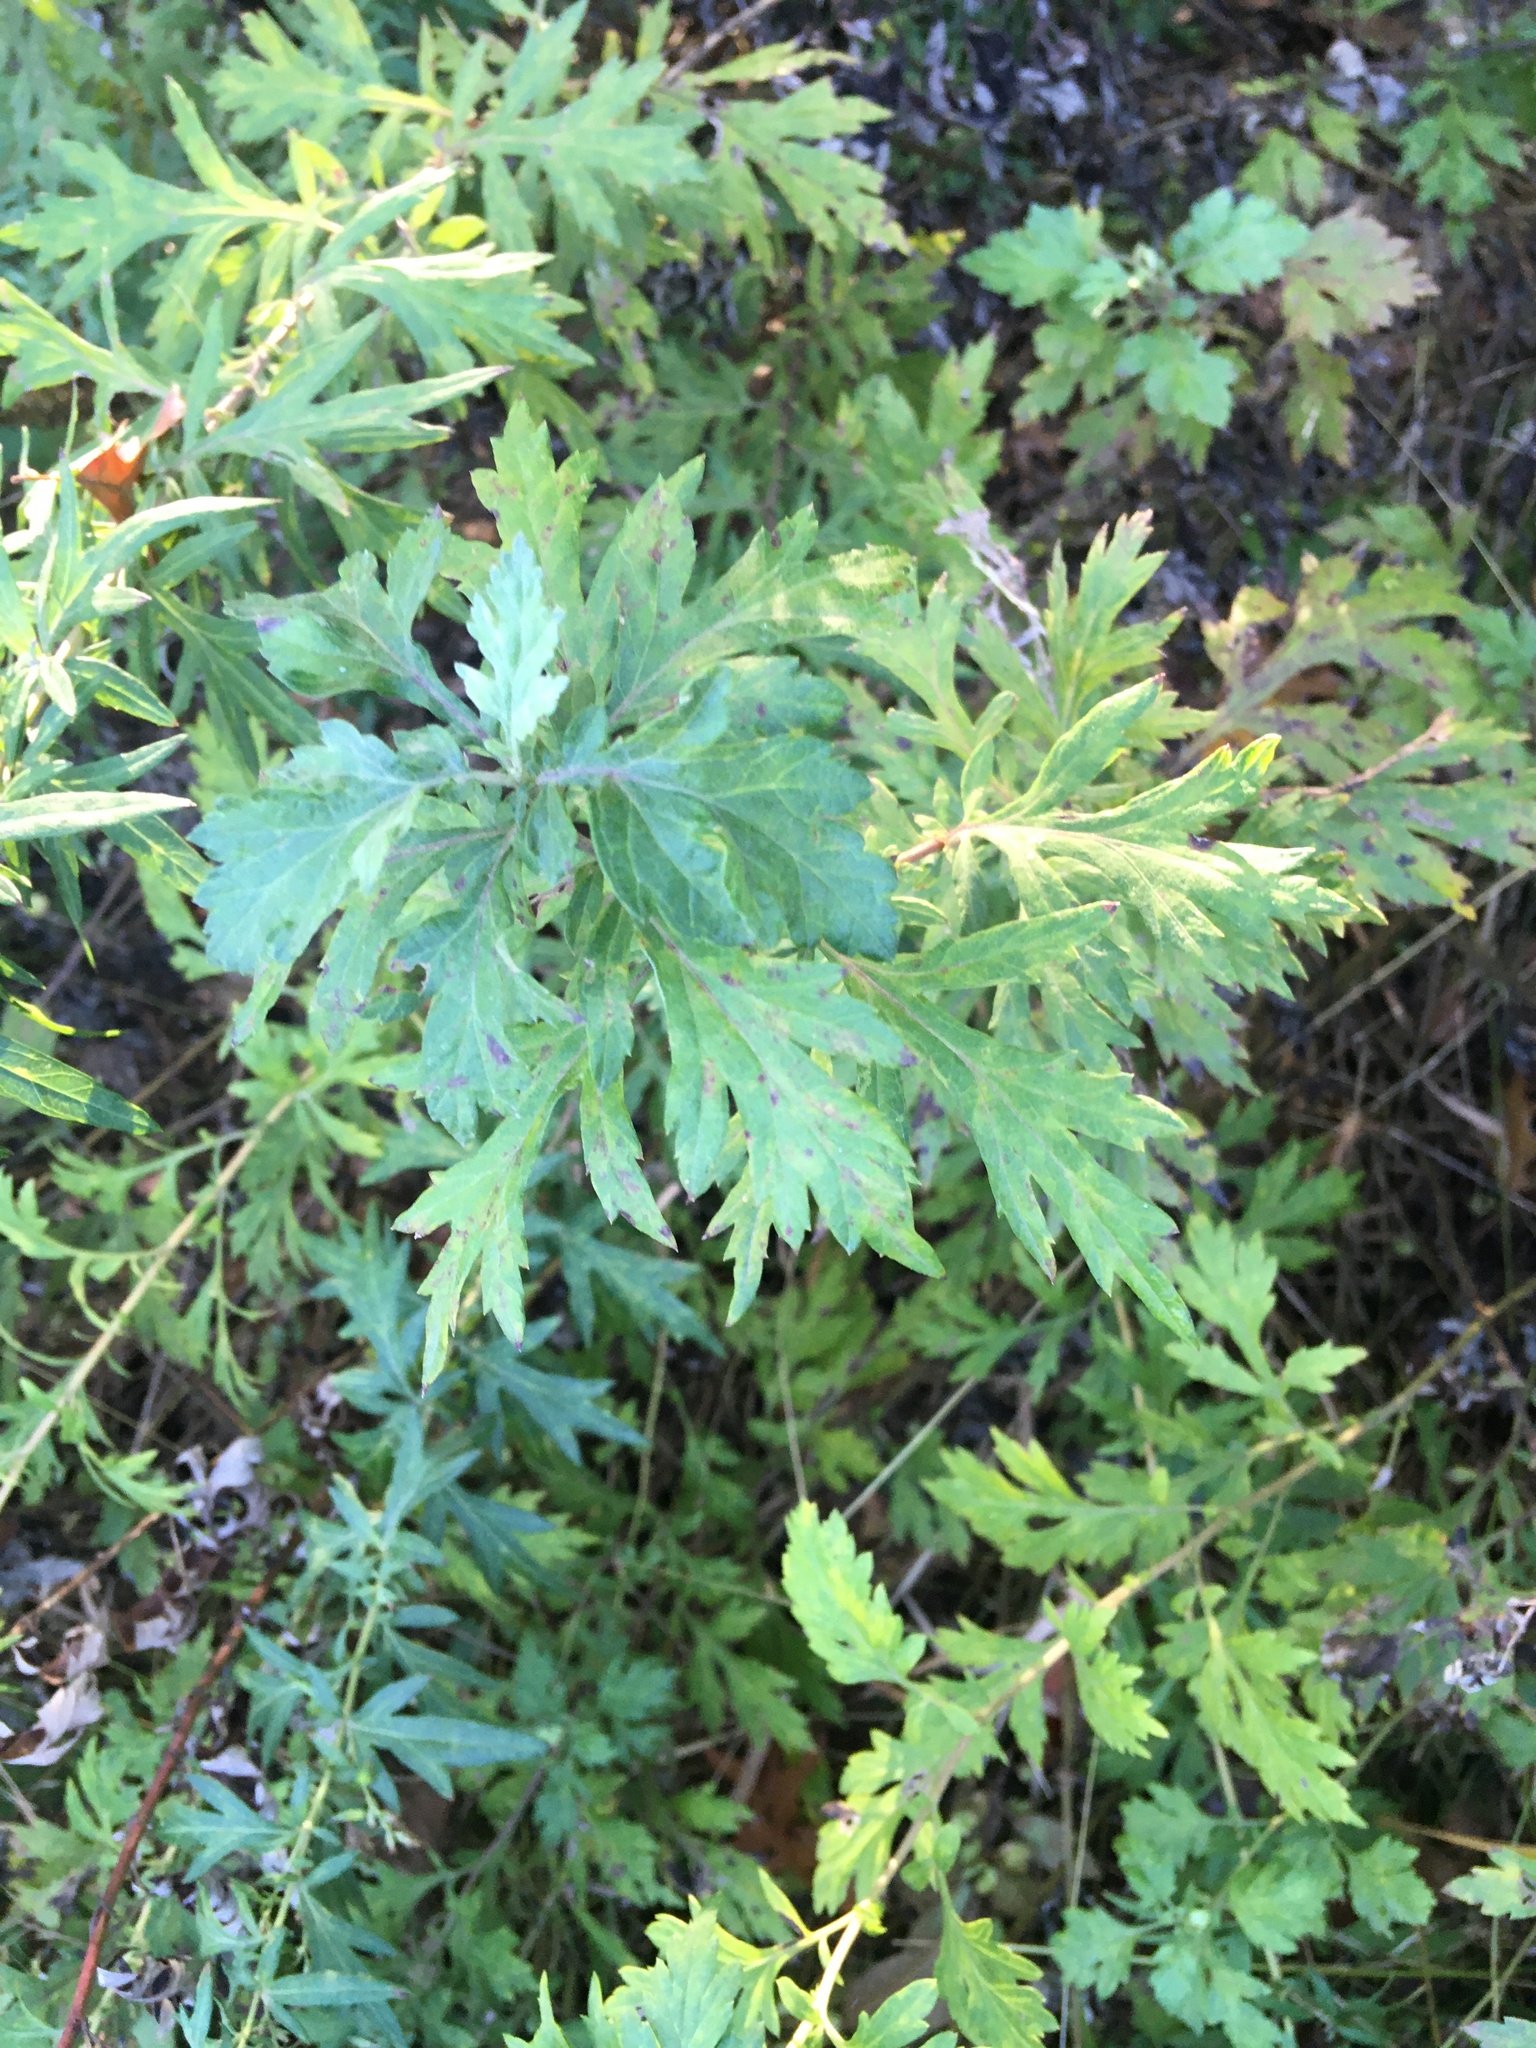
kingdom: Plantae
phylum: Tracheophyta
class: Magnoliopsida
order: Asterales
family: Asteraceae
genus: Artemisia
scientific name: Artemisia vulgaris
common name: Mugwort
